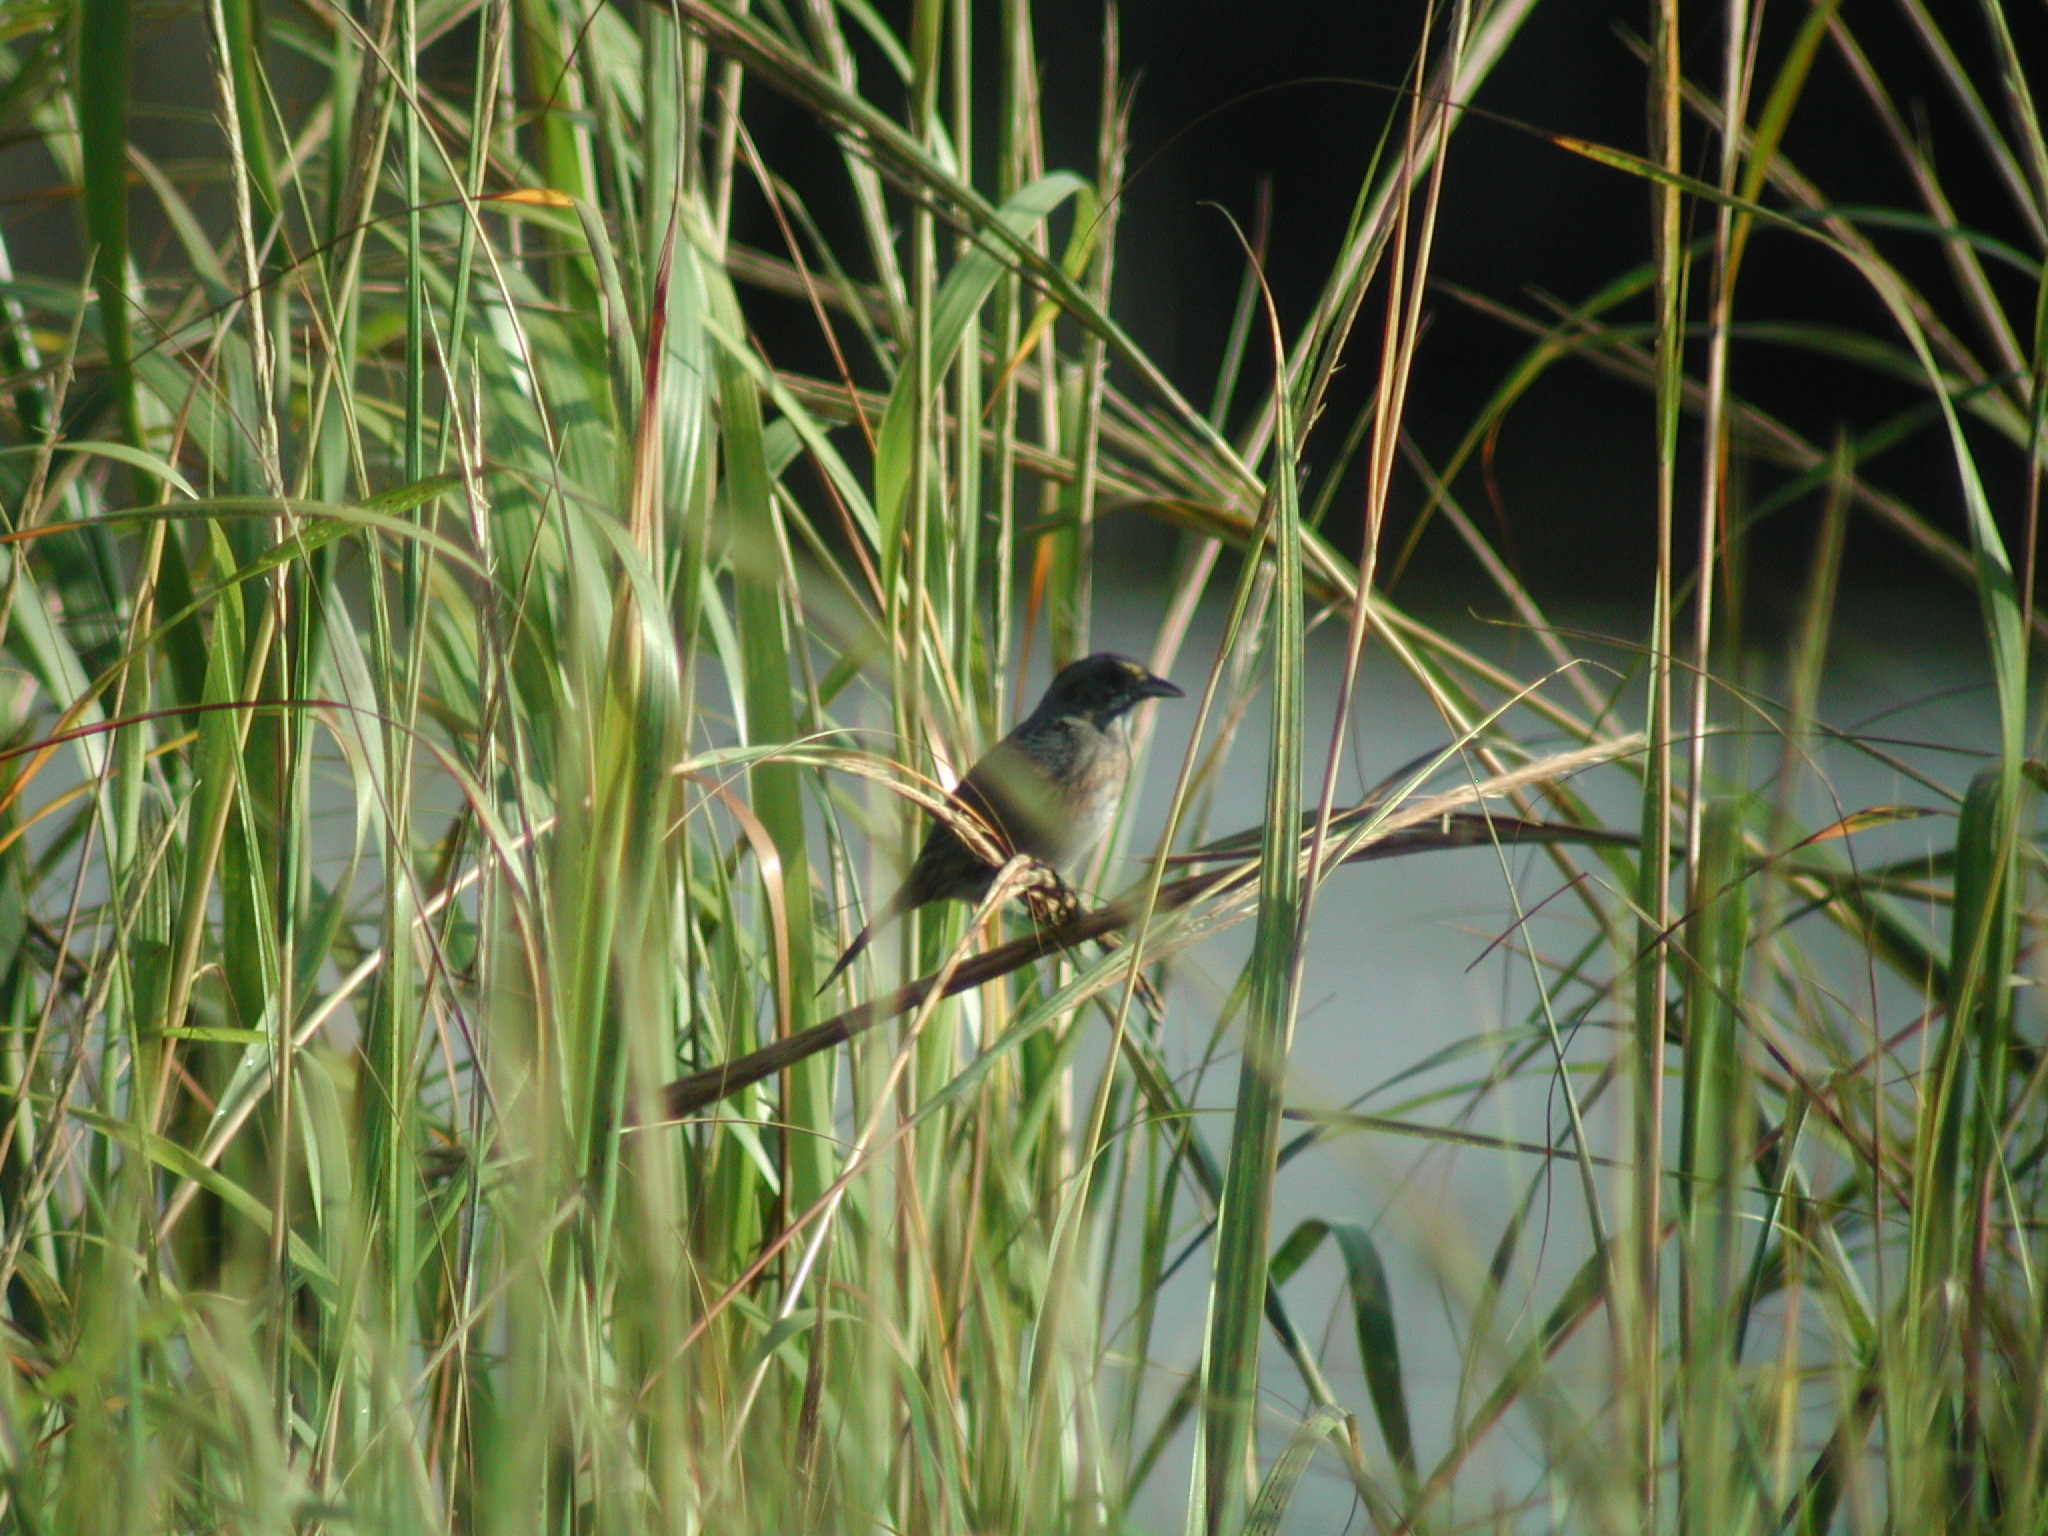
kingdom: Animalia
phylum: Chordata
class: Aves
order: Passeriformes
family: Passerellidae
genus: Ammospiza
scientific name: Ammospiza maritima
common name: Seaside sparrow
